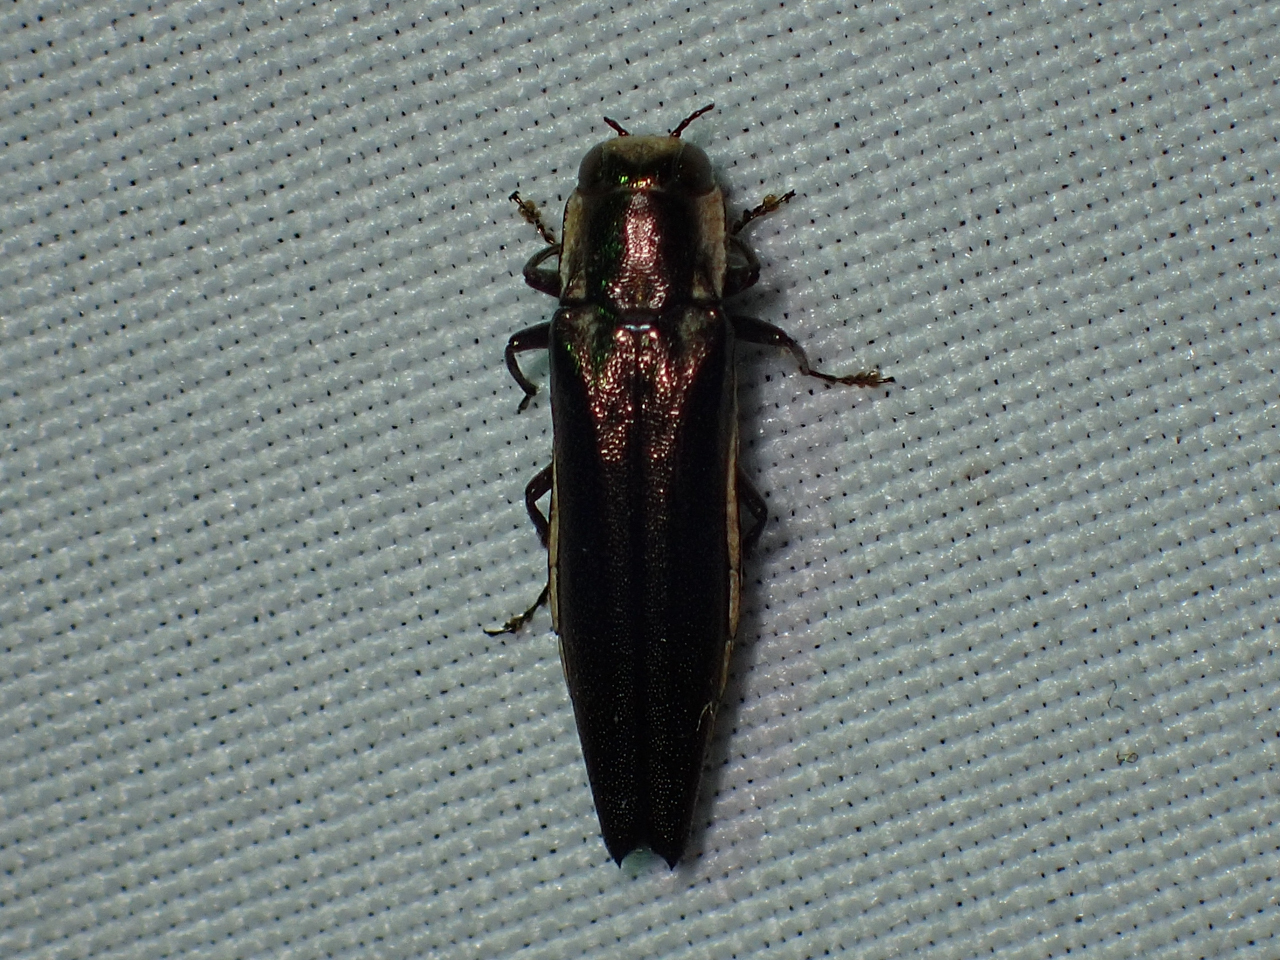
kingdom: Animalia
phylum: Arthropoda
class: Insecta
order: Coleoptera
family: Buprestidae
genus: Agrilus
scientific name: Agrilus ferrisi
